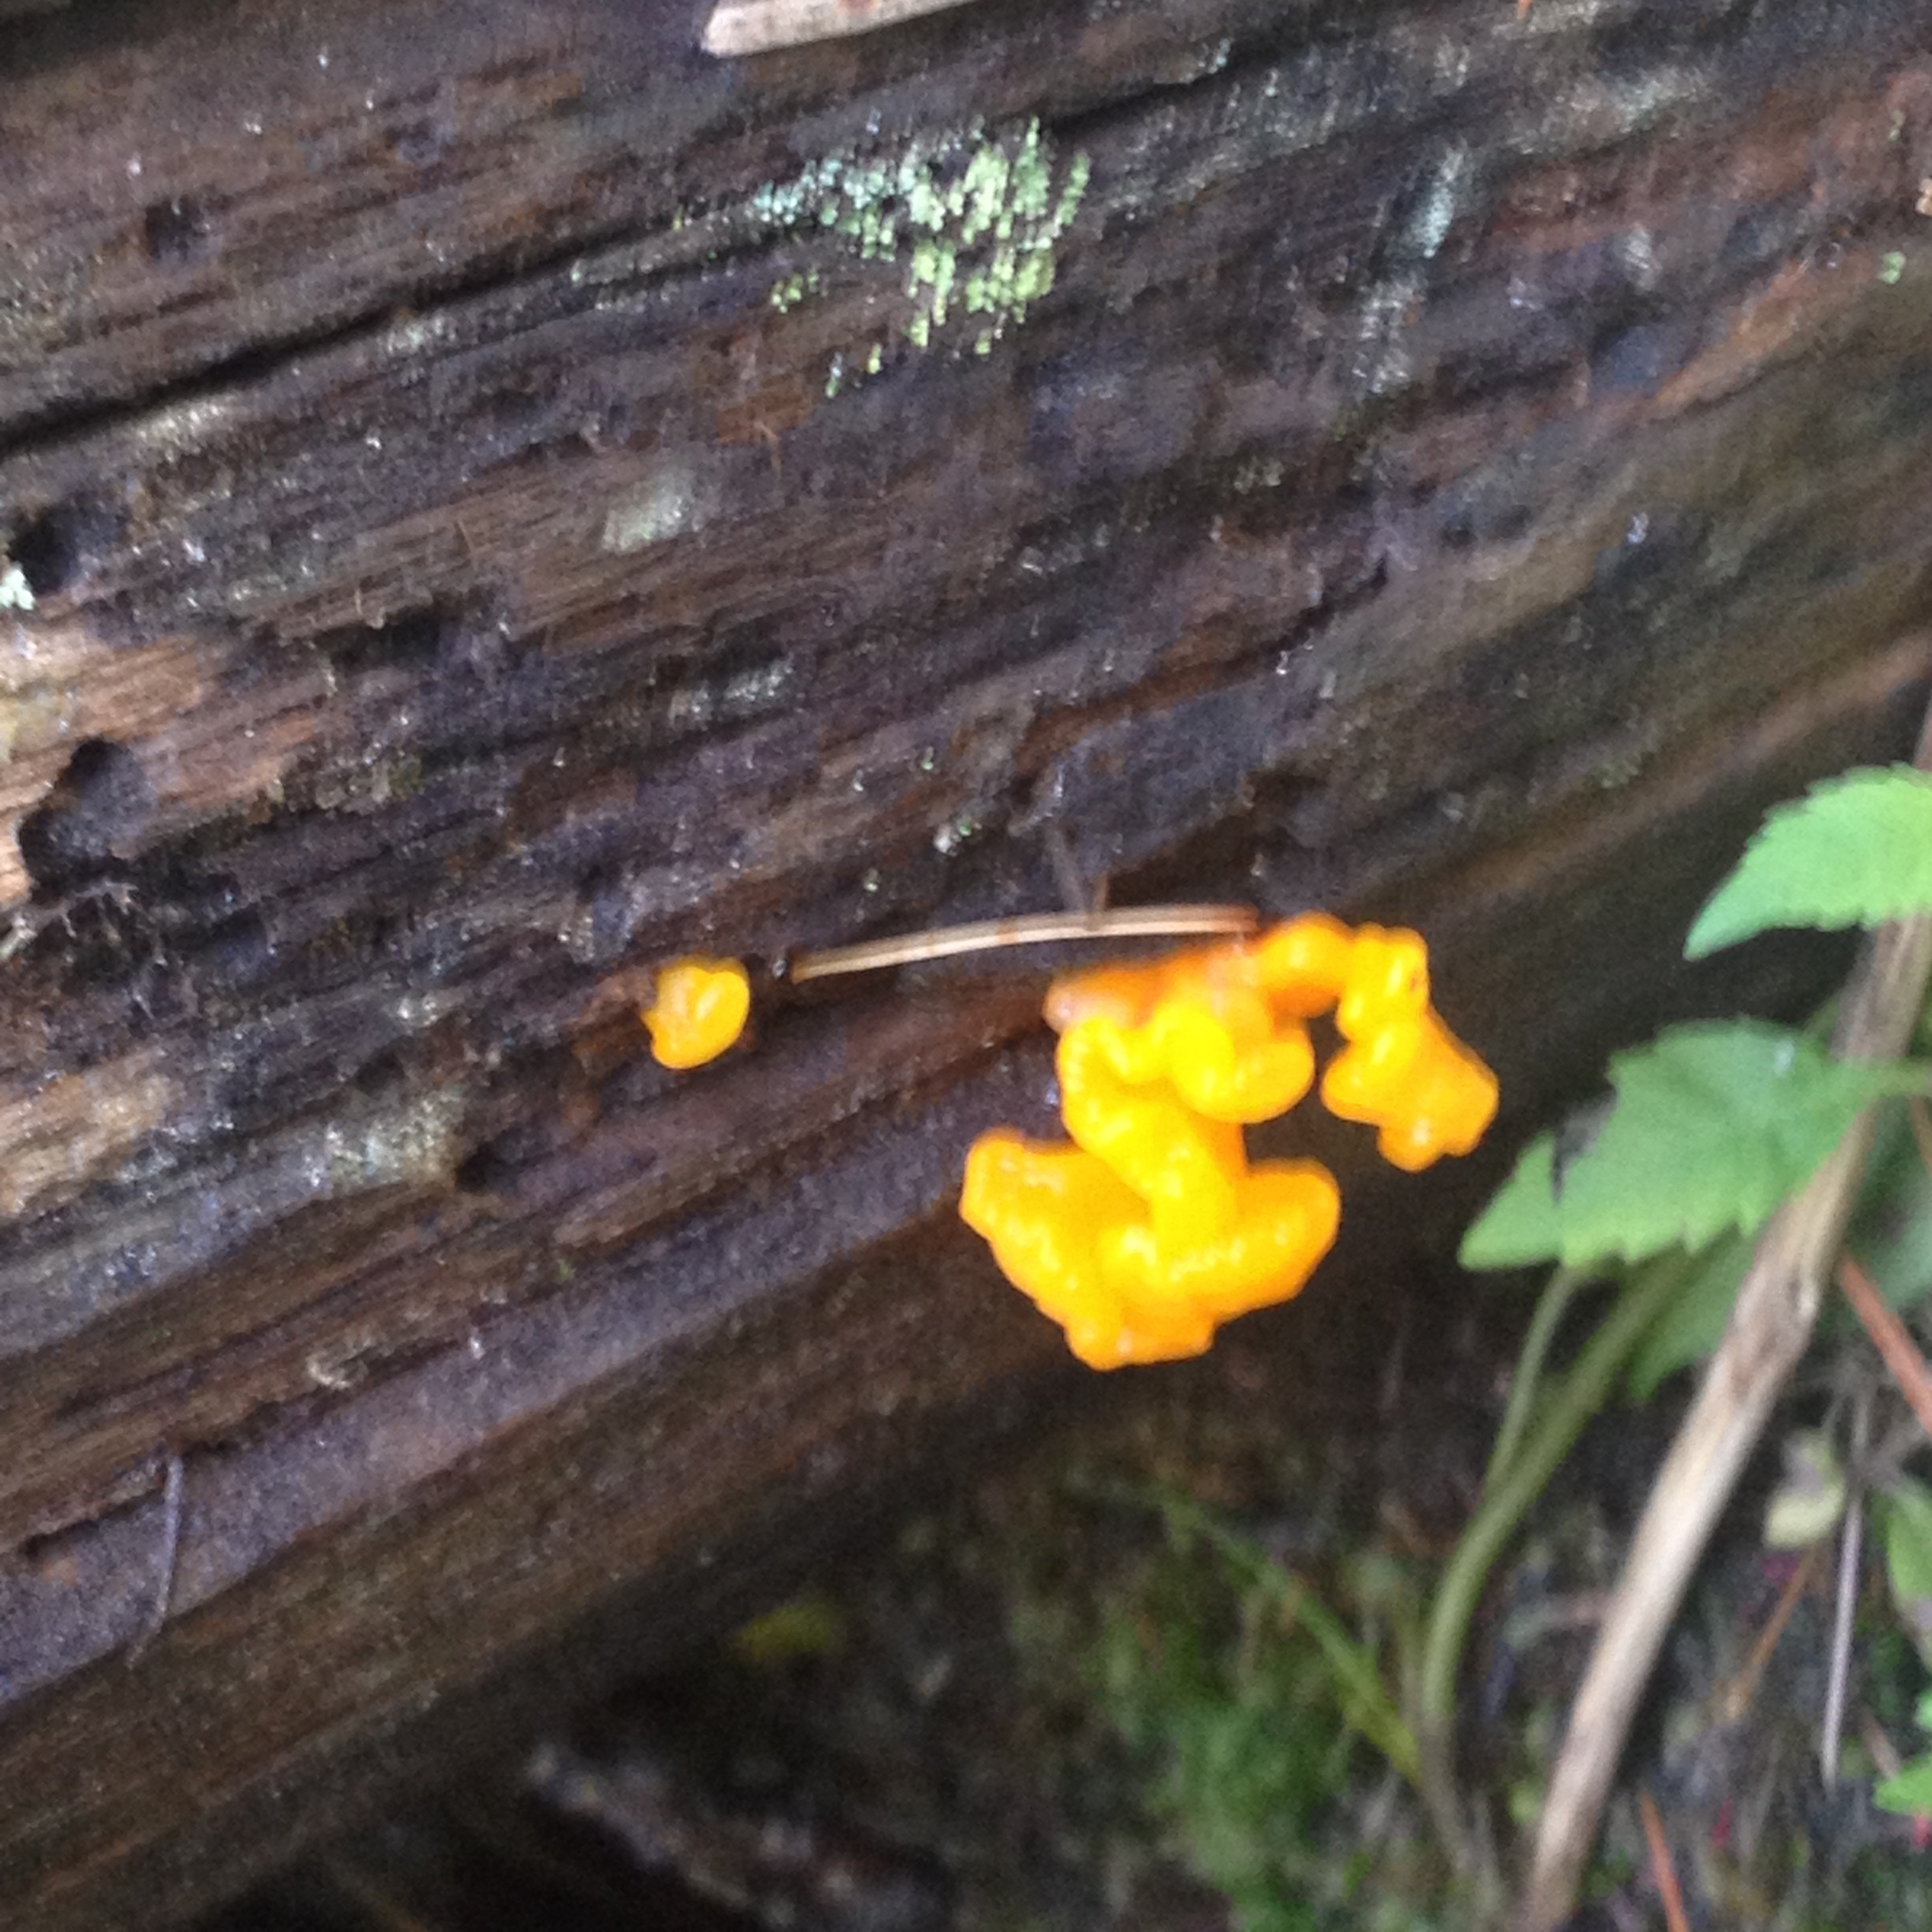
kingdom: Fungi
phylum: Basidiomycota
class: Tremellomycetes
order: Tremellales
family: Tremellaceae
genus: Tremella
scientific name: Tremella mesenterica
